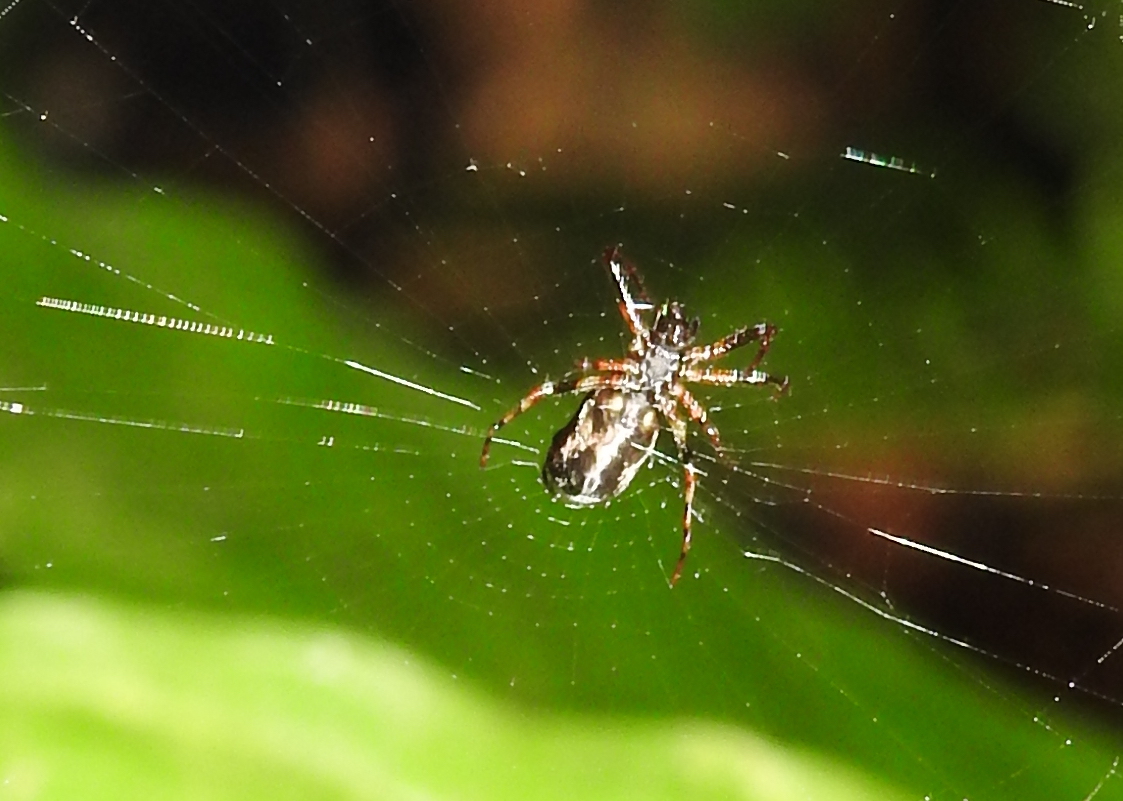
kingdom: Animalia
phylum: Arthropoda
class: Arachnida
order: Araneae
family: Araneidae
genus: Cyclosa
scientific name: Cyclosa bifida
